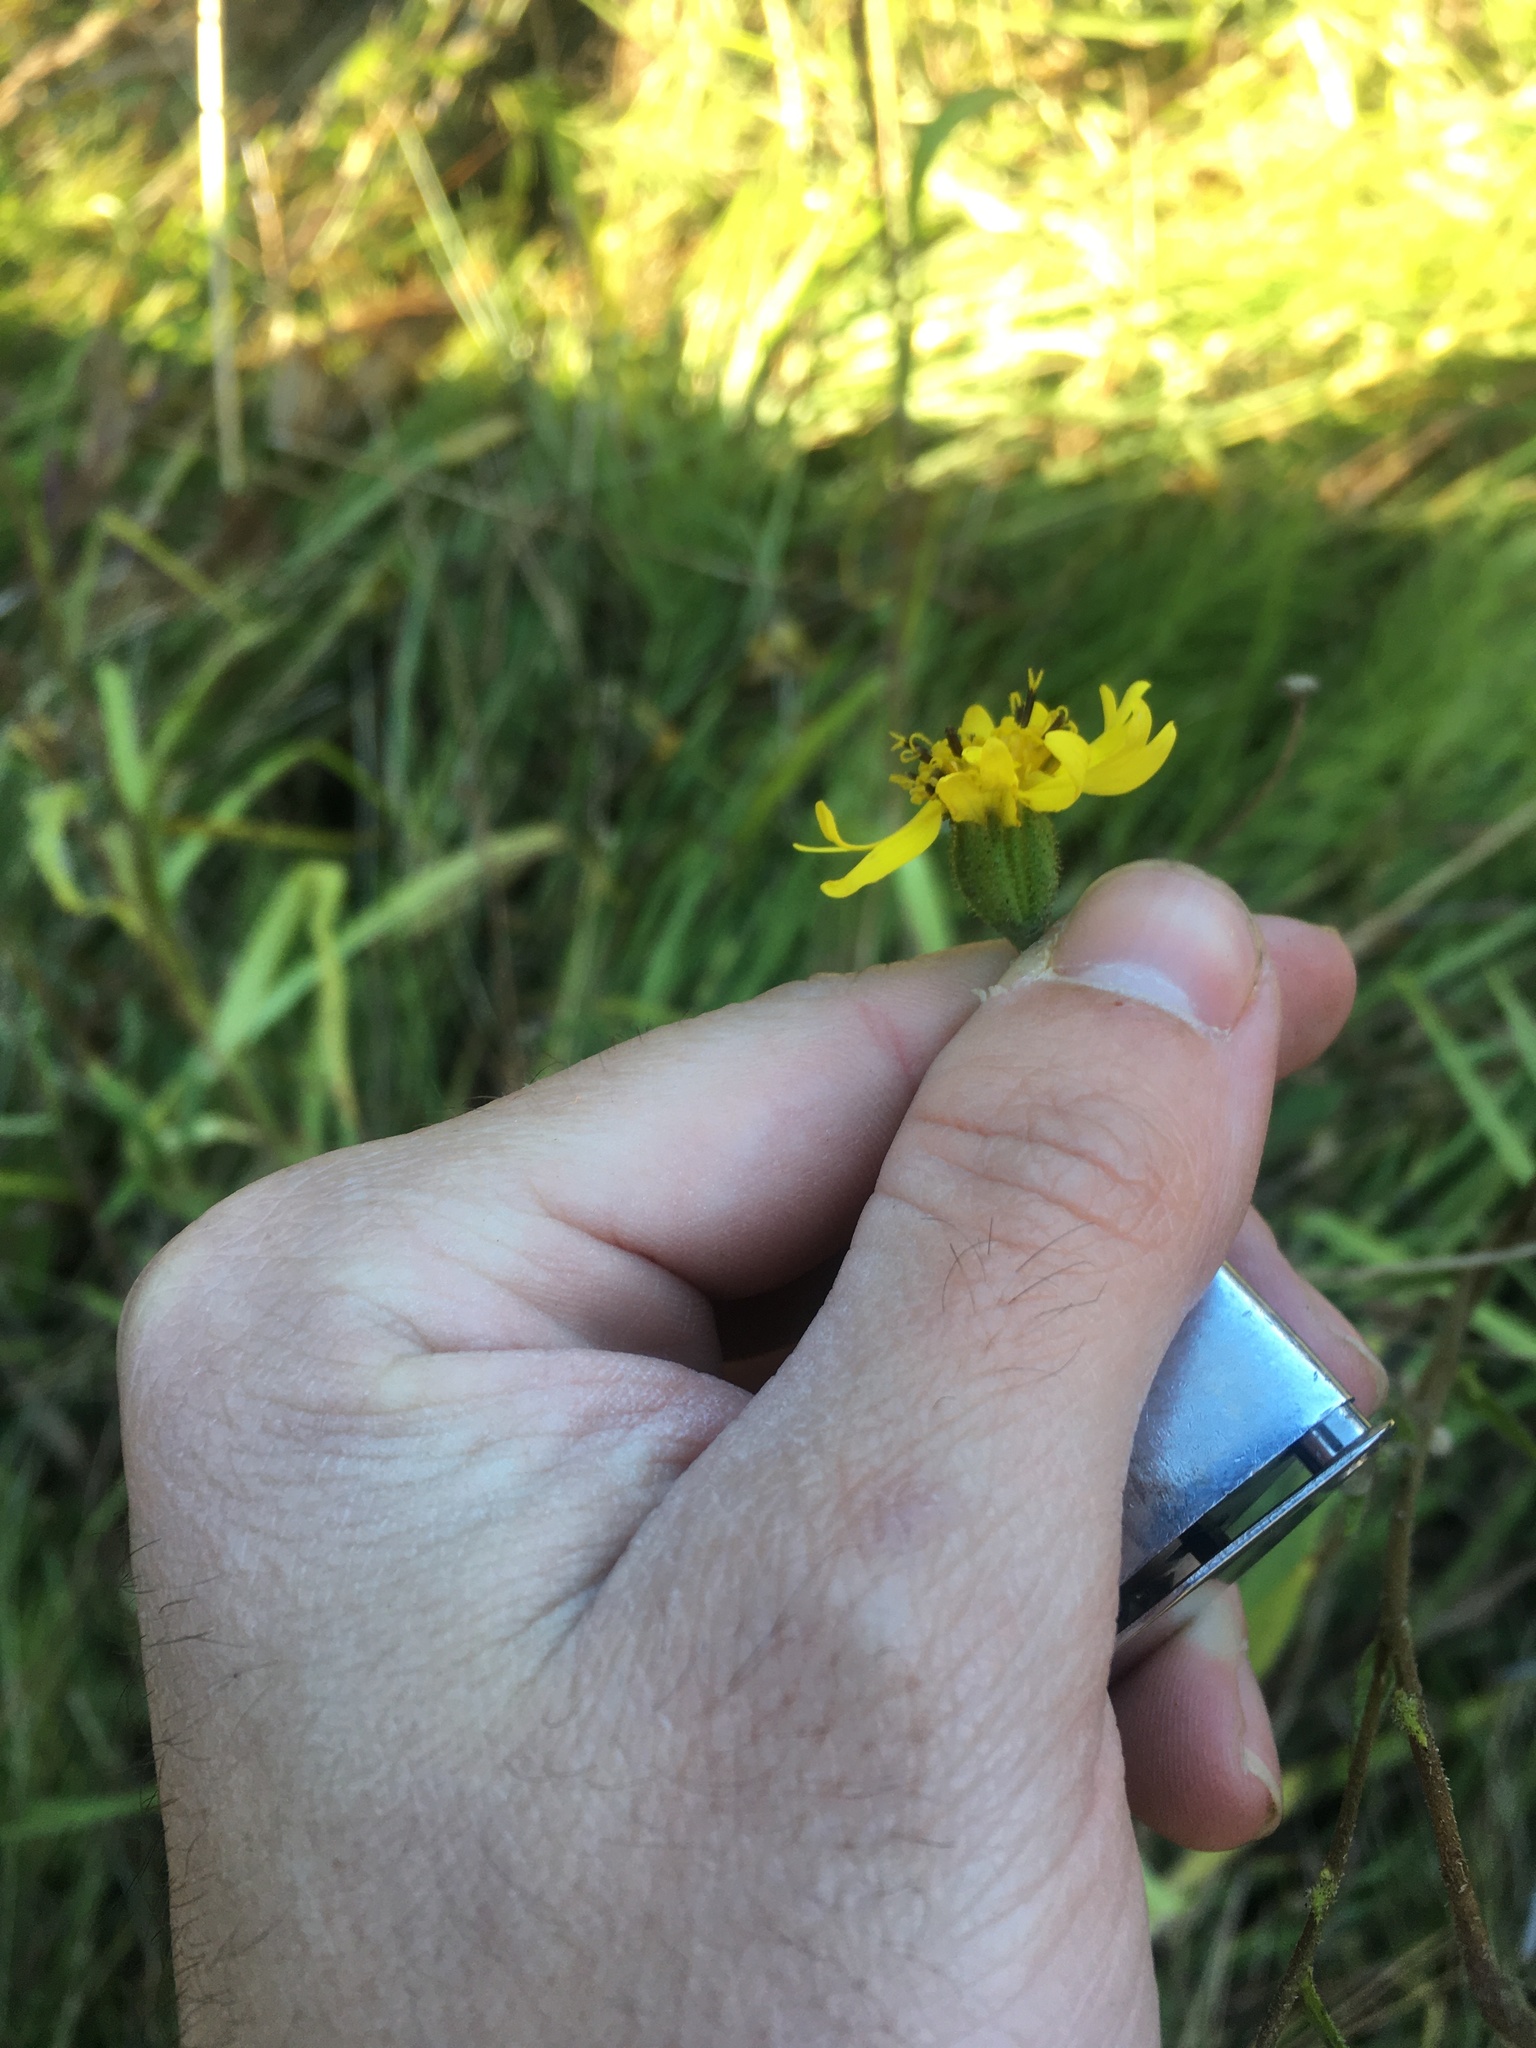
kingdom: Plantae
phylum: Tracheophyta
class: Magnoliopsida
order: Asterales
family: Asteraceae
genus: Kyhosia
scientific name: Kyhosia bolanderi
